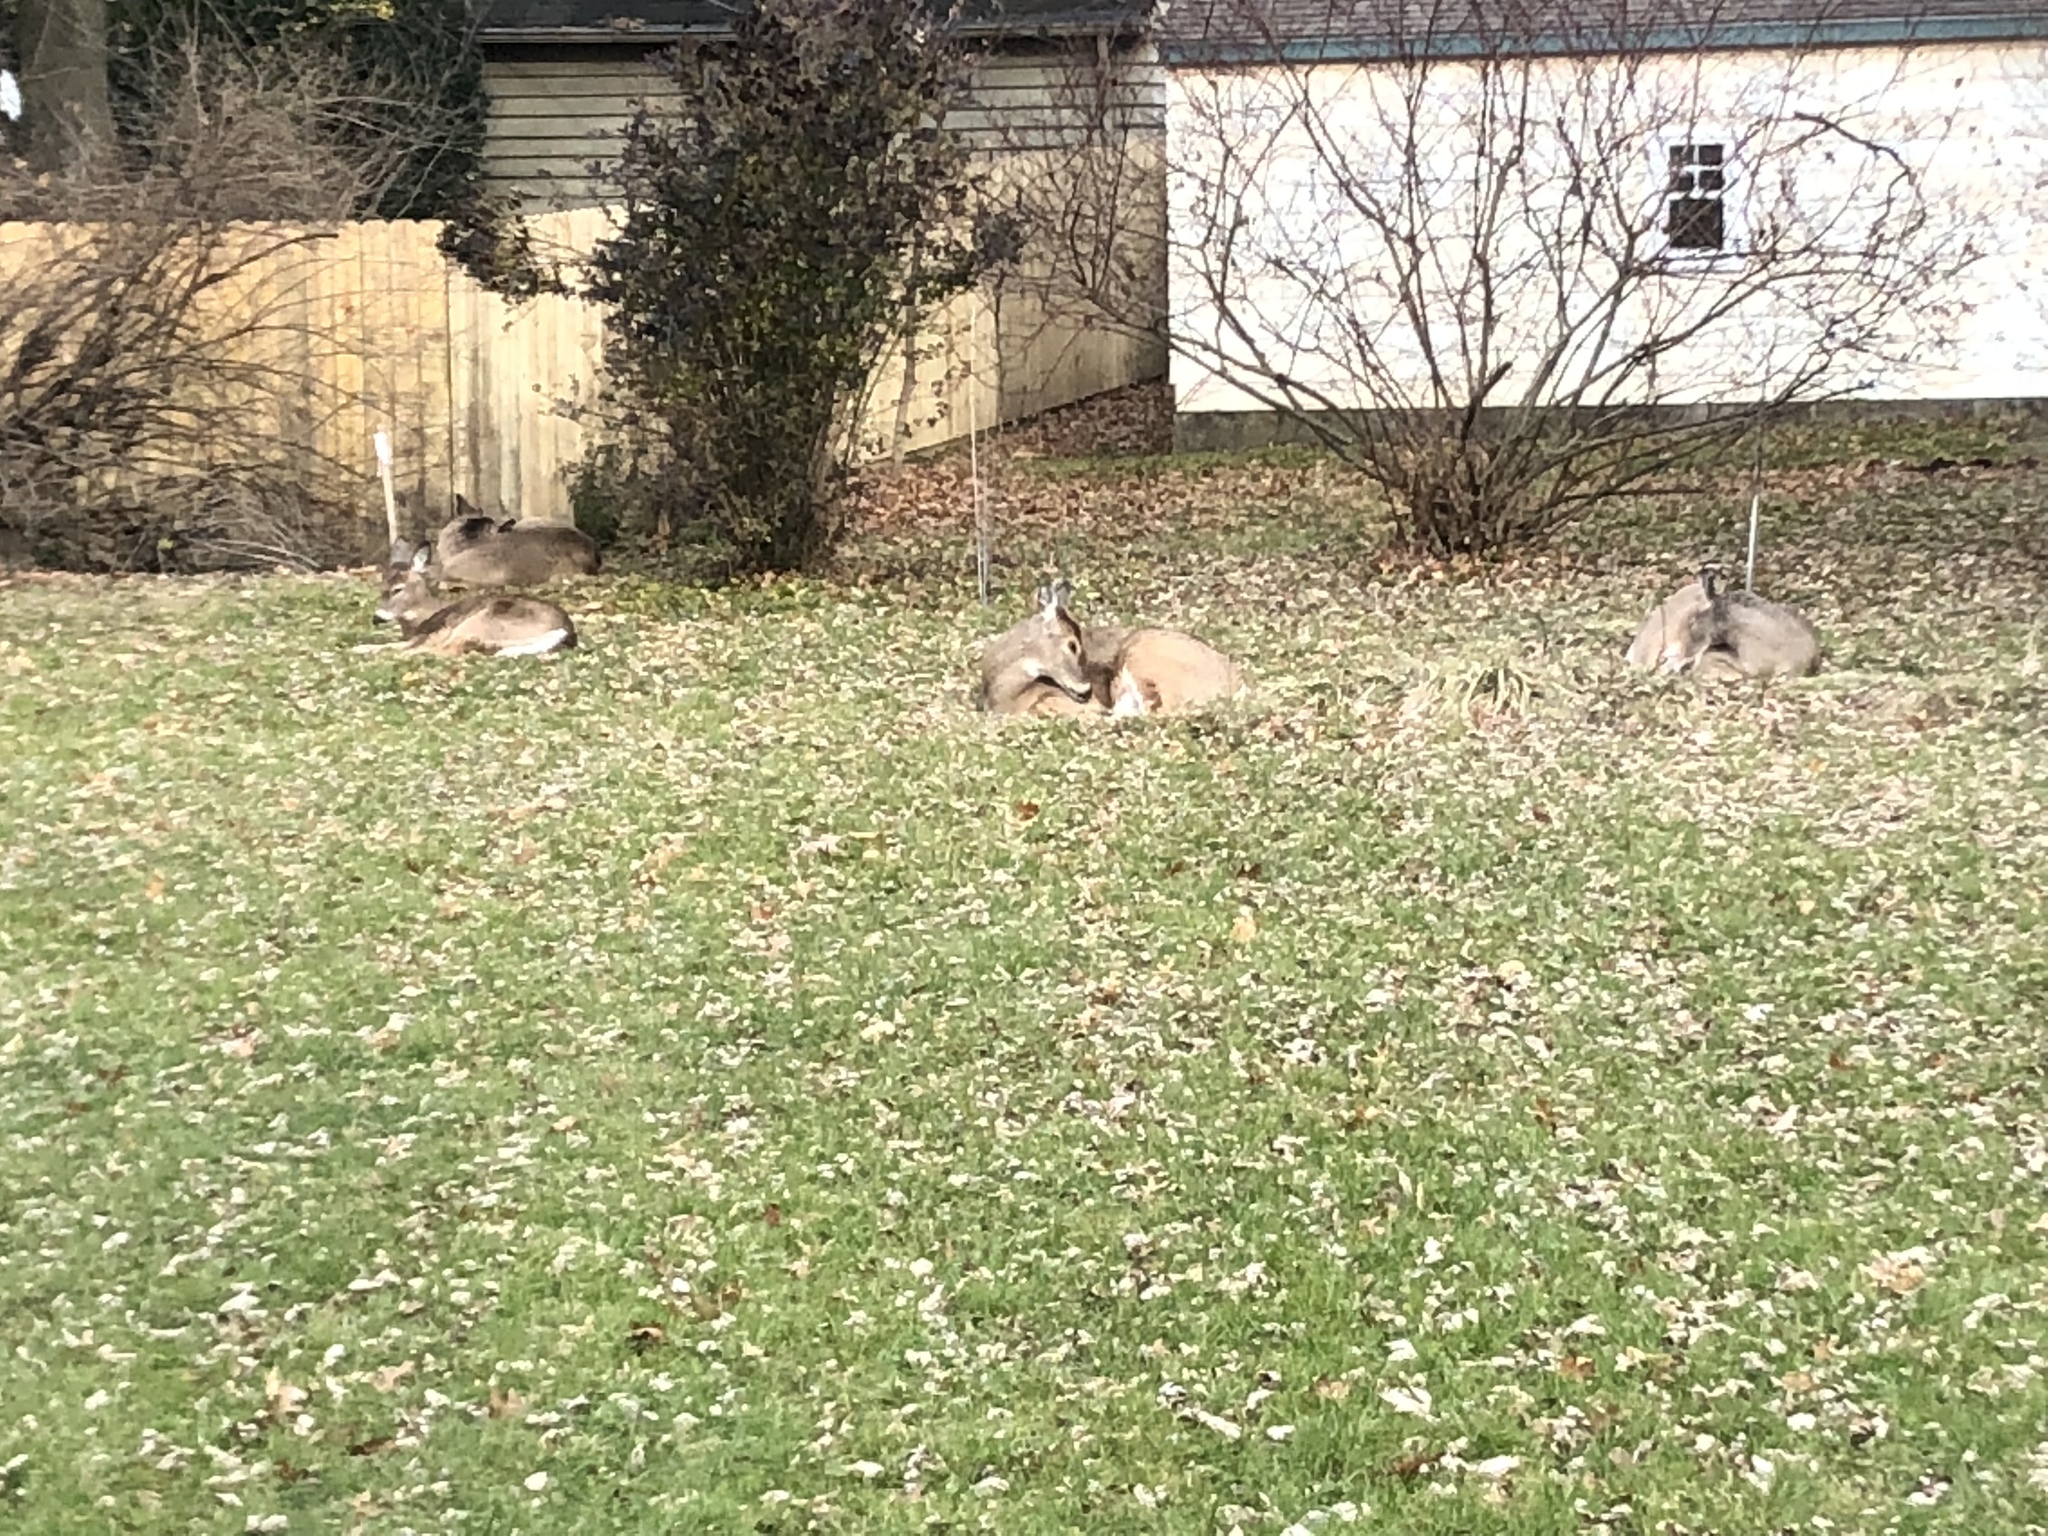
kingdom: Animalia
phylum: Chordata
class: Mammalia
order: Artiodactyla
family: Cervidae
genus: Odocoileus
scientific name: Odocoileus virginianus
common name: White-tailed deer
